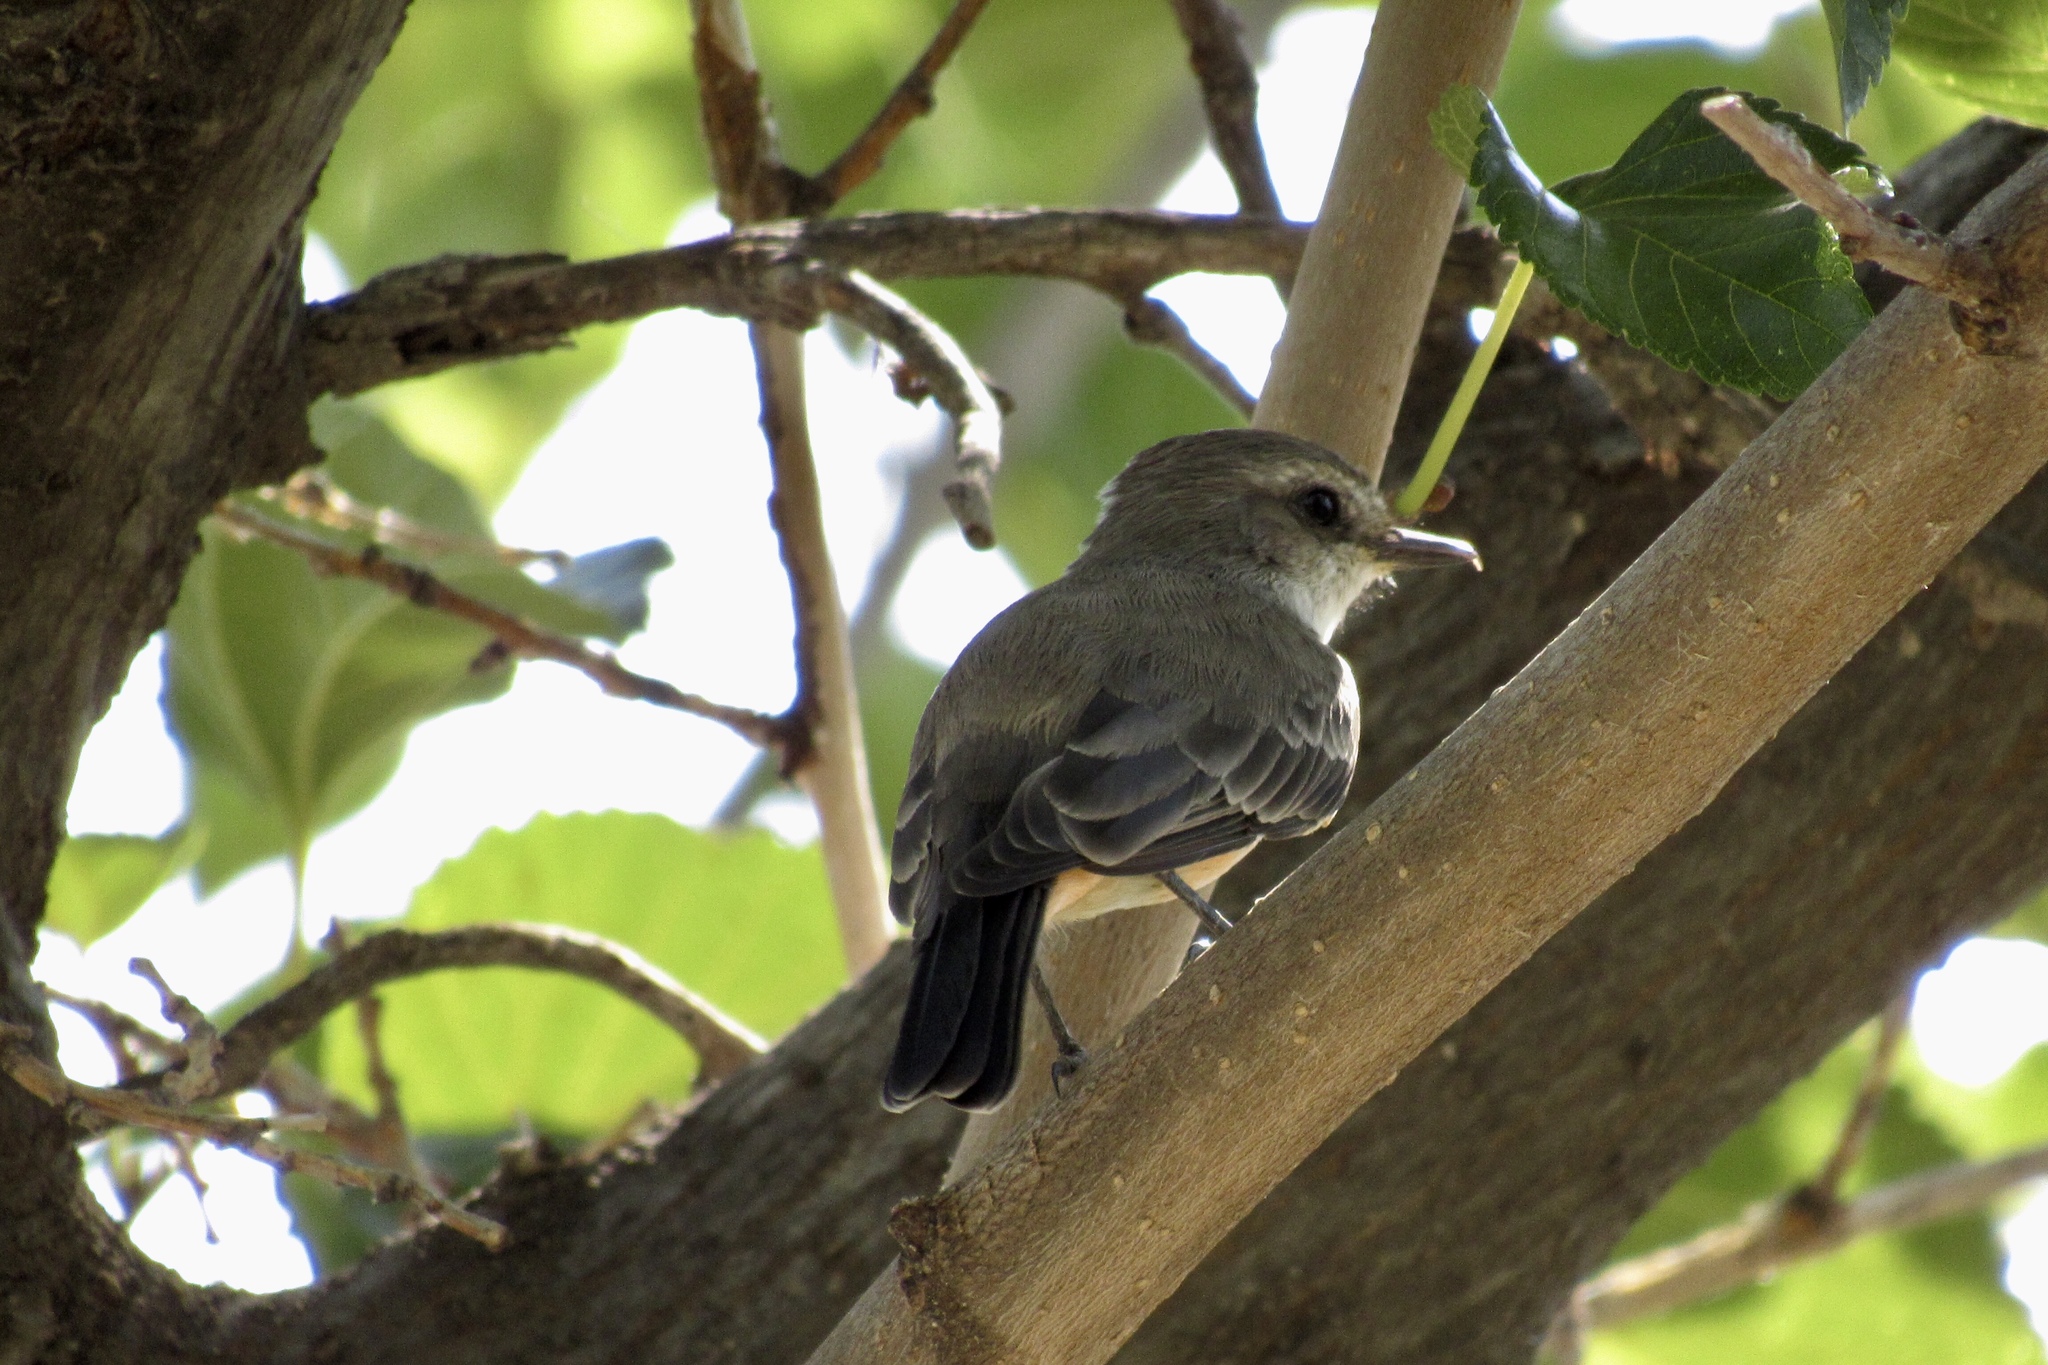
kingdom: Animalia
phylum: Chordata
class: Aves
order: Passeriformes
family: Tyrannidae
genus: Pyrocephalus
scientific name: Pyrocephalus rubinus
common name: Vermilion flycatcher
